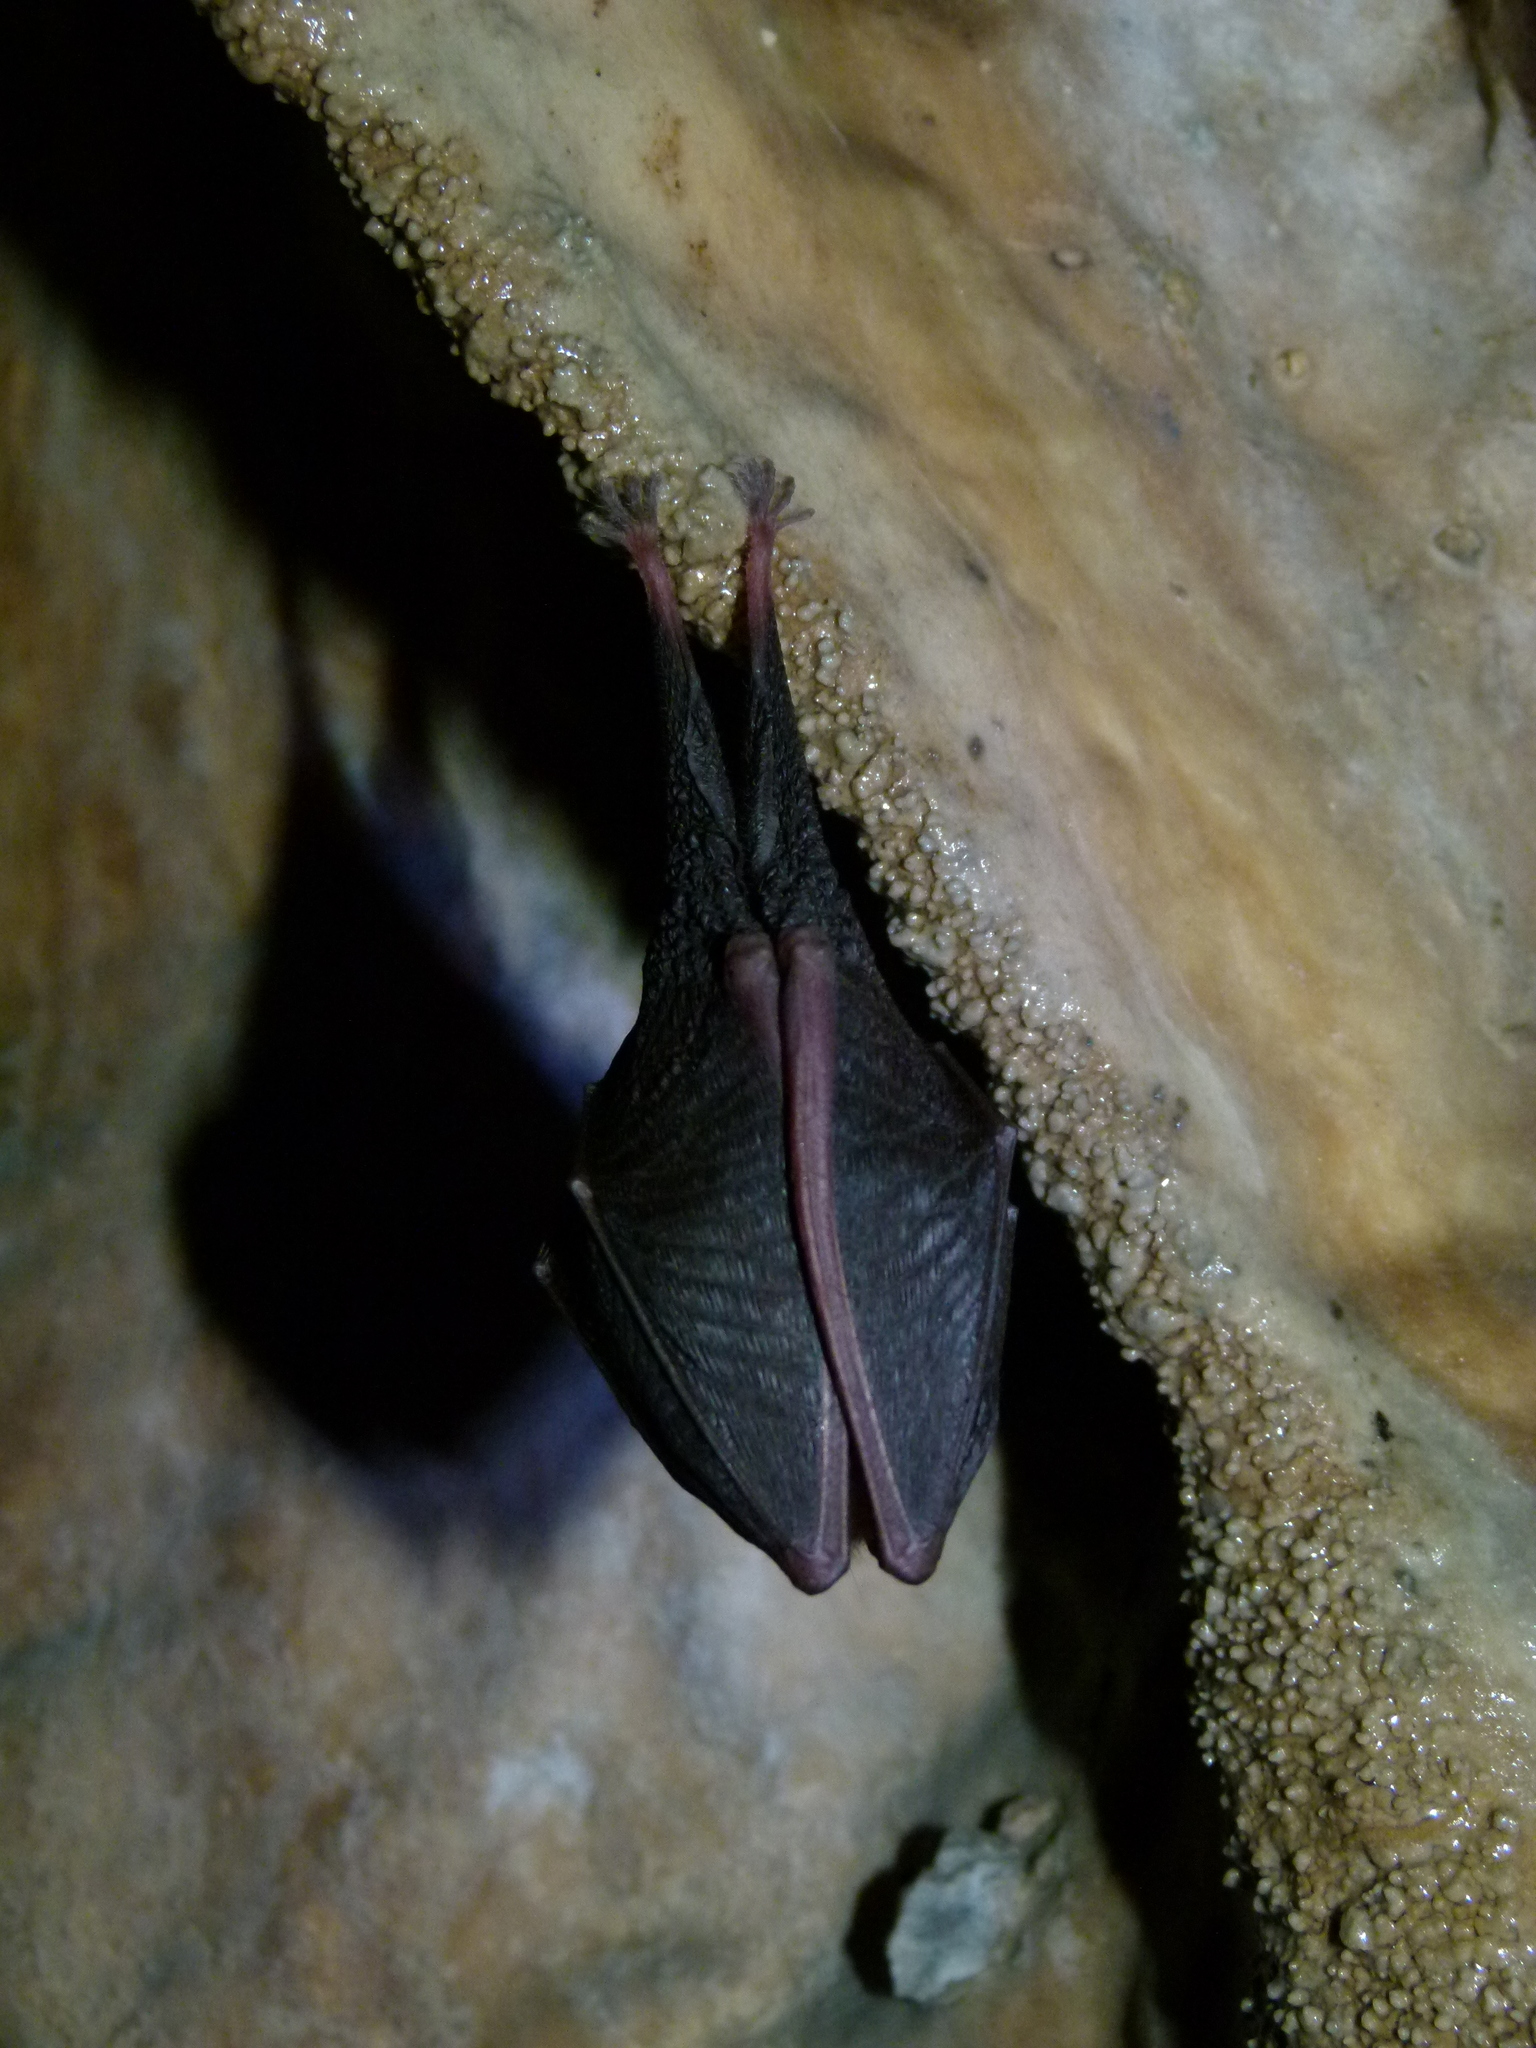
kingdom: Animalia
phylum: Chordata
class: Mammalia
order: Chiroptera
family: Rhinolophidae
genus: Rhinolophus
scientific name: Rhinolophus hipposideros
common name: Lesser horseshoe bat
